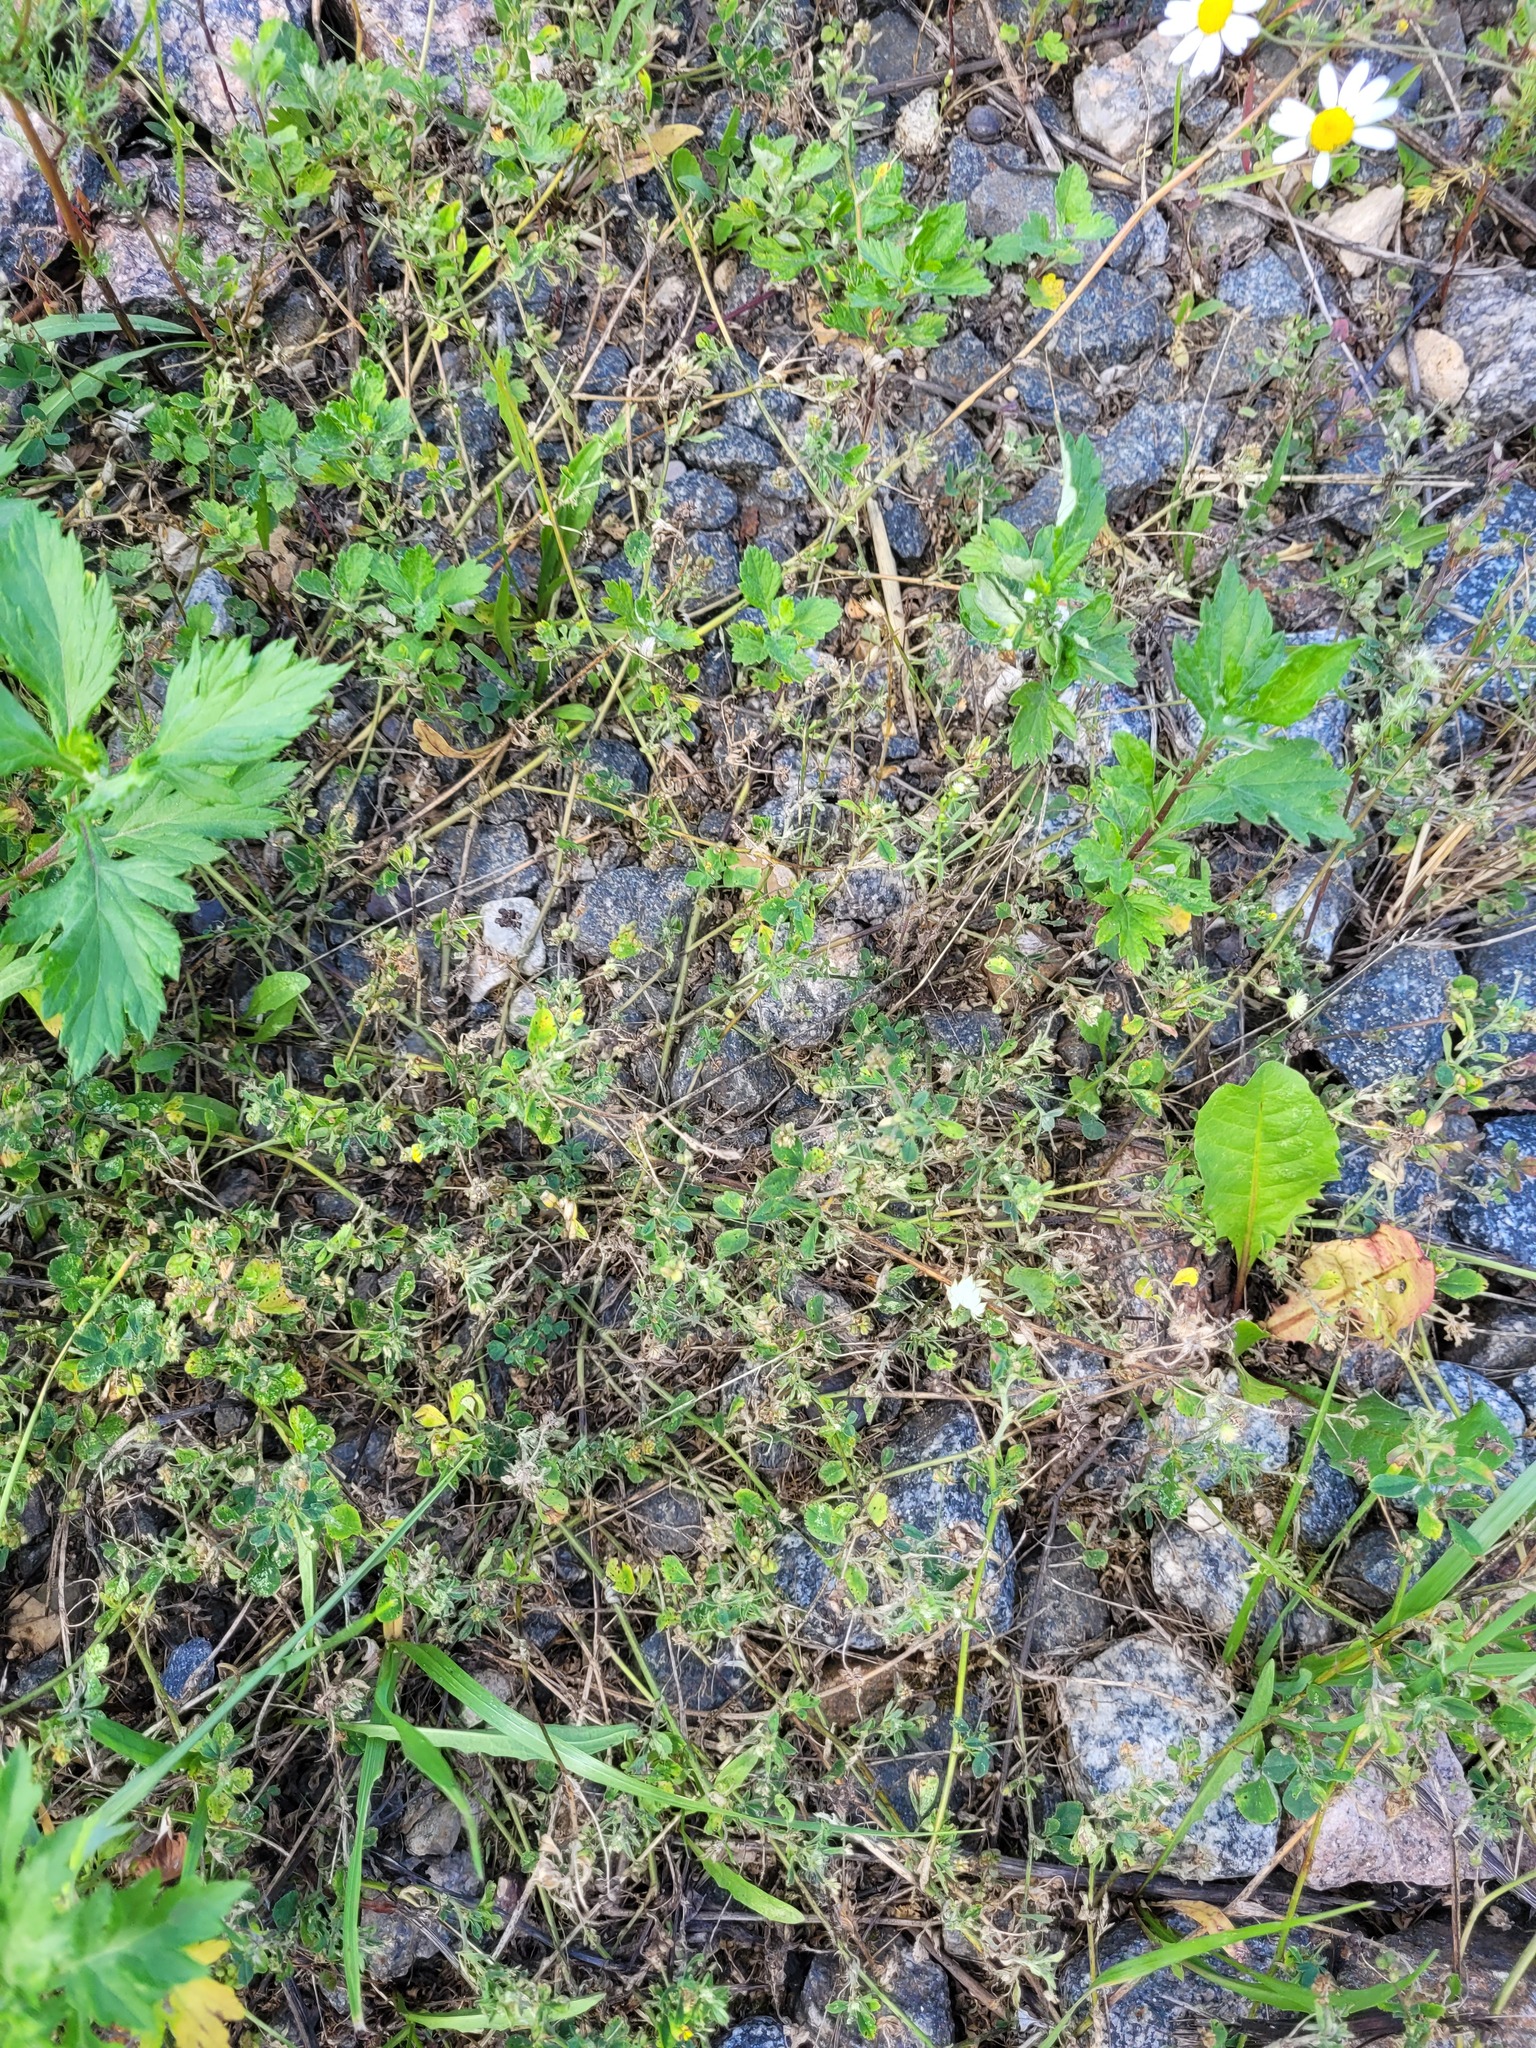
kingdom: Plantae
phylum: Tracheophyta
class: Magnoliopsida
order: Fabales
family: Fabaceae
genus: Medicago
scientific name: Medicago lupulina
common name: Black medick
